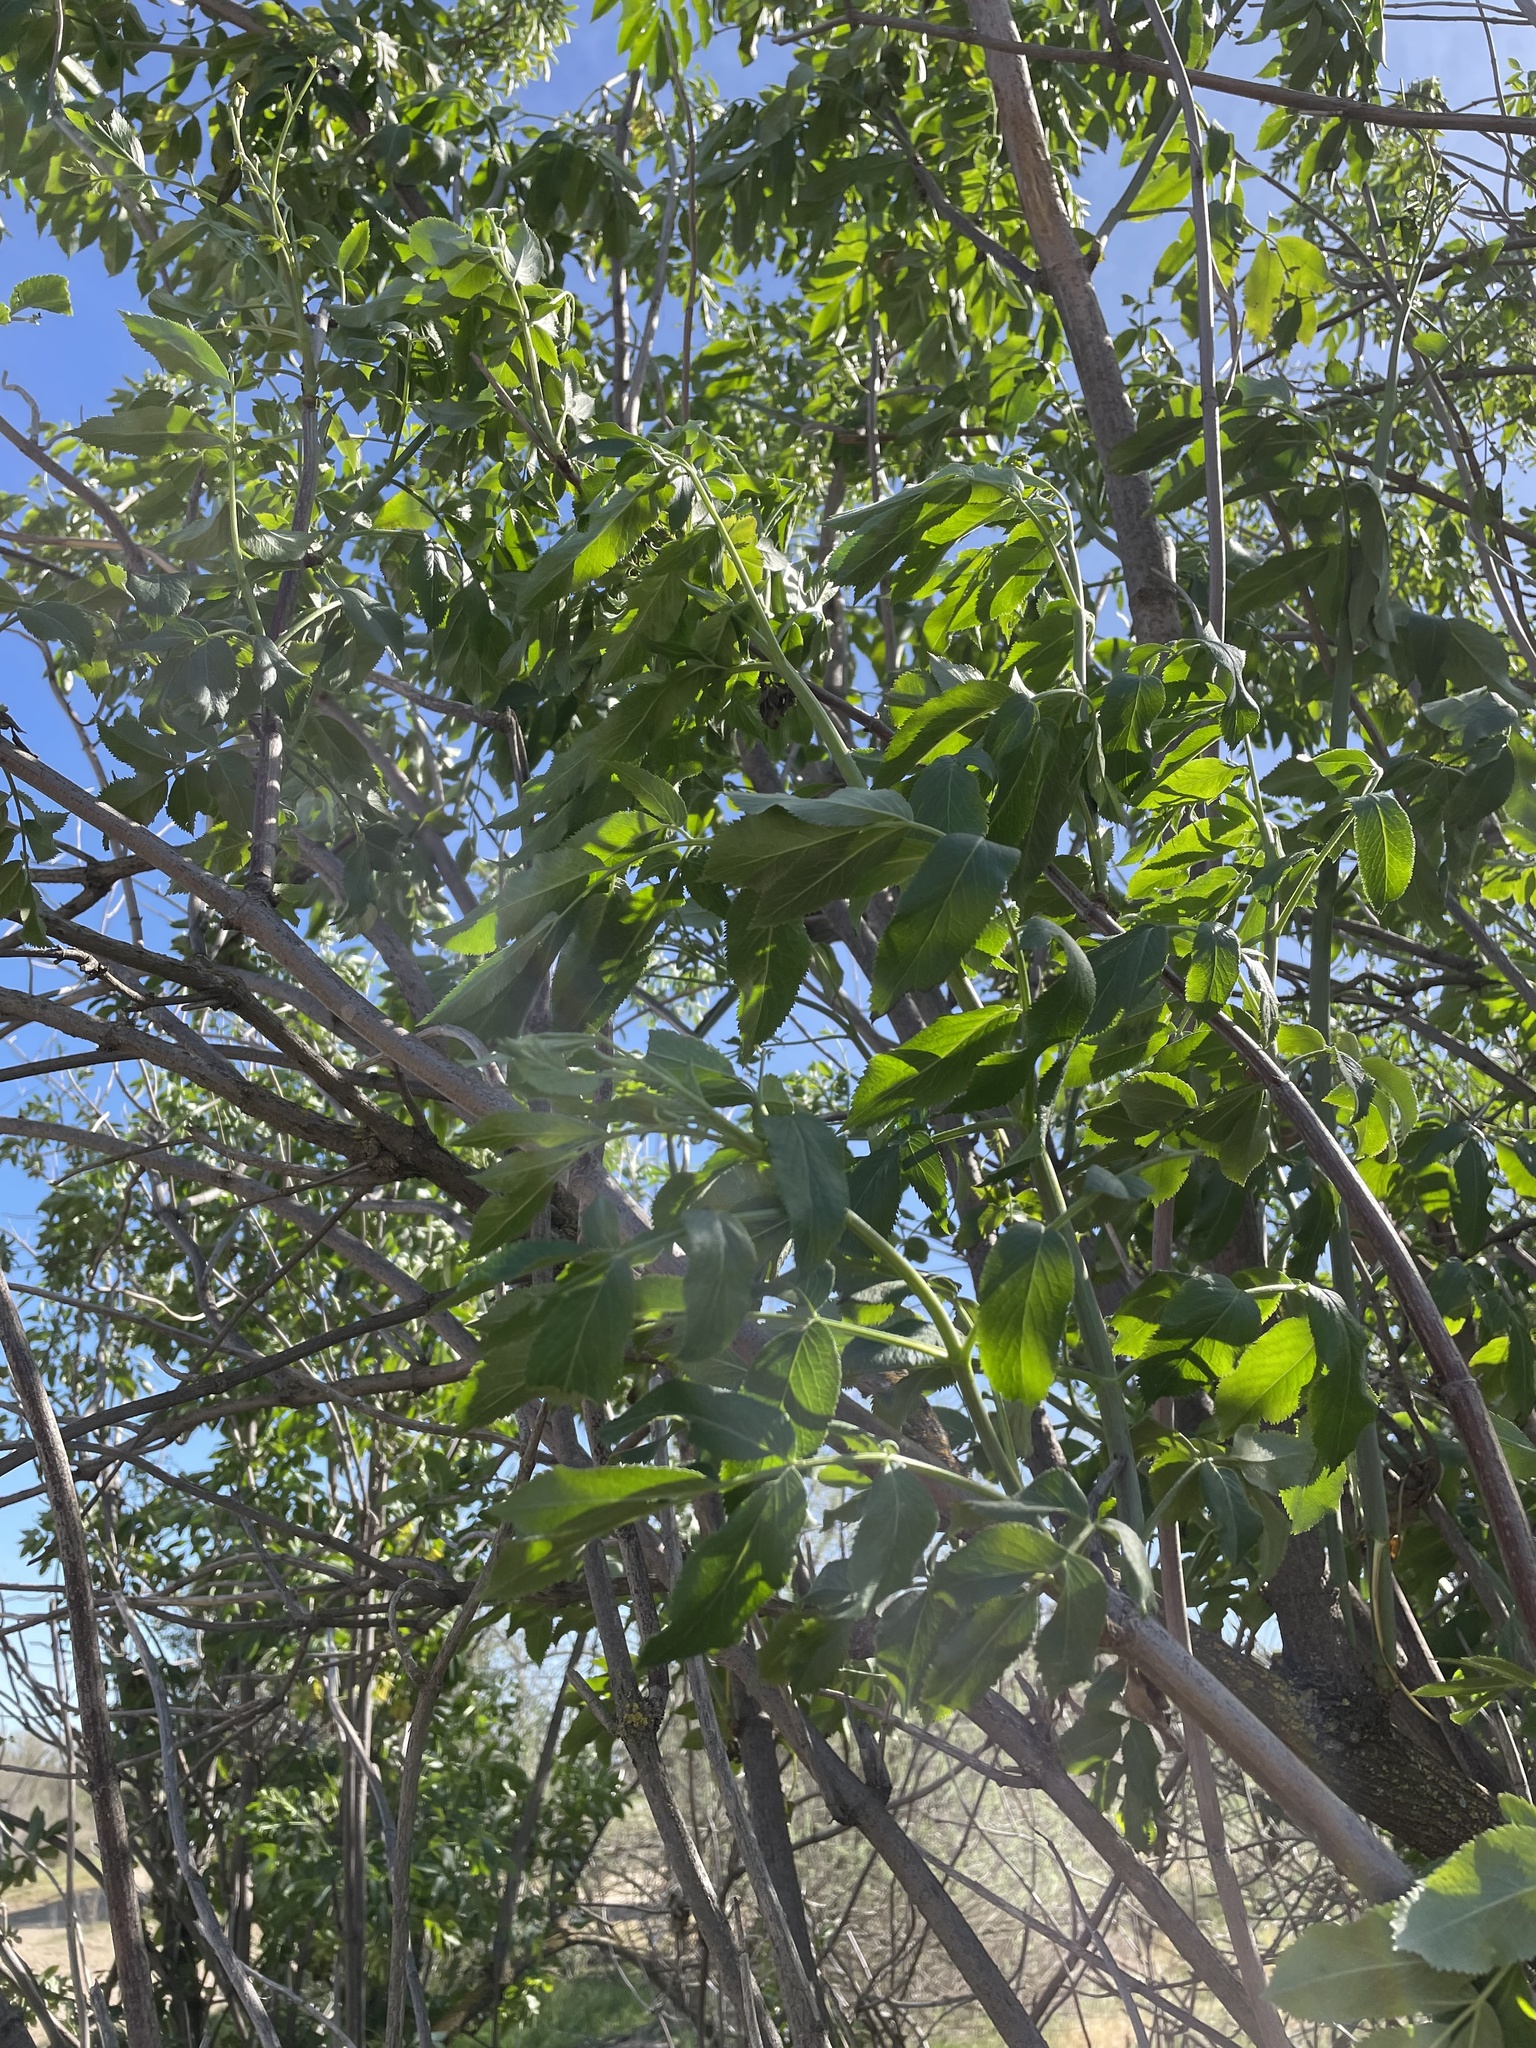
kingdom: Plantae
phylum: Tracheophyta
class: Magnoliopsida
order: Dipsacales
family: Viburnaceae
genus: Sambucus
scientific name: Sambucus cerulea
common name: Blue elder
